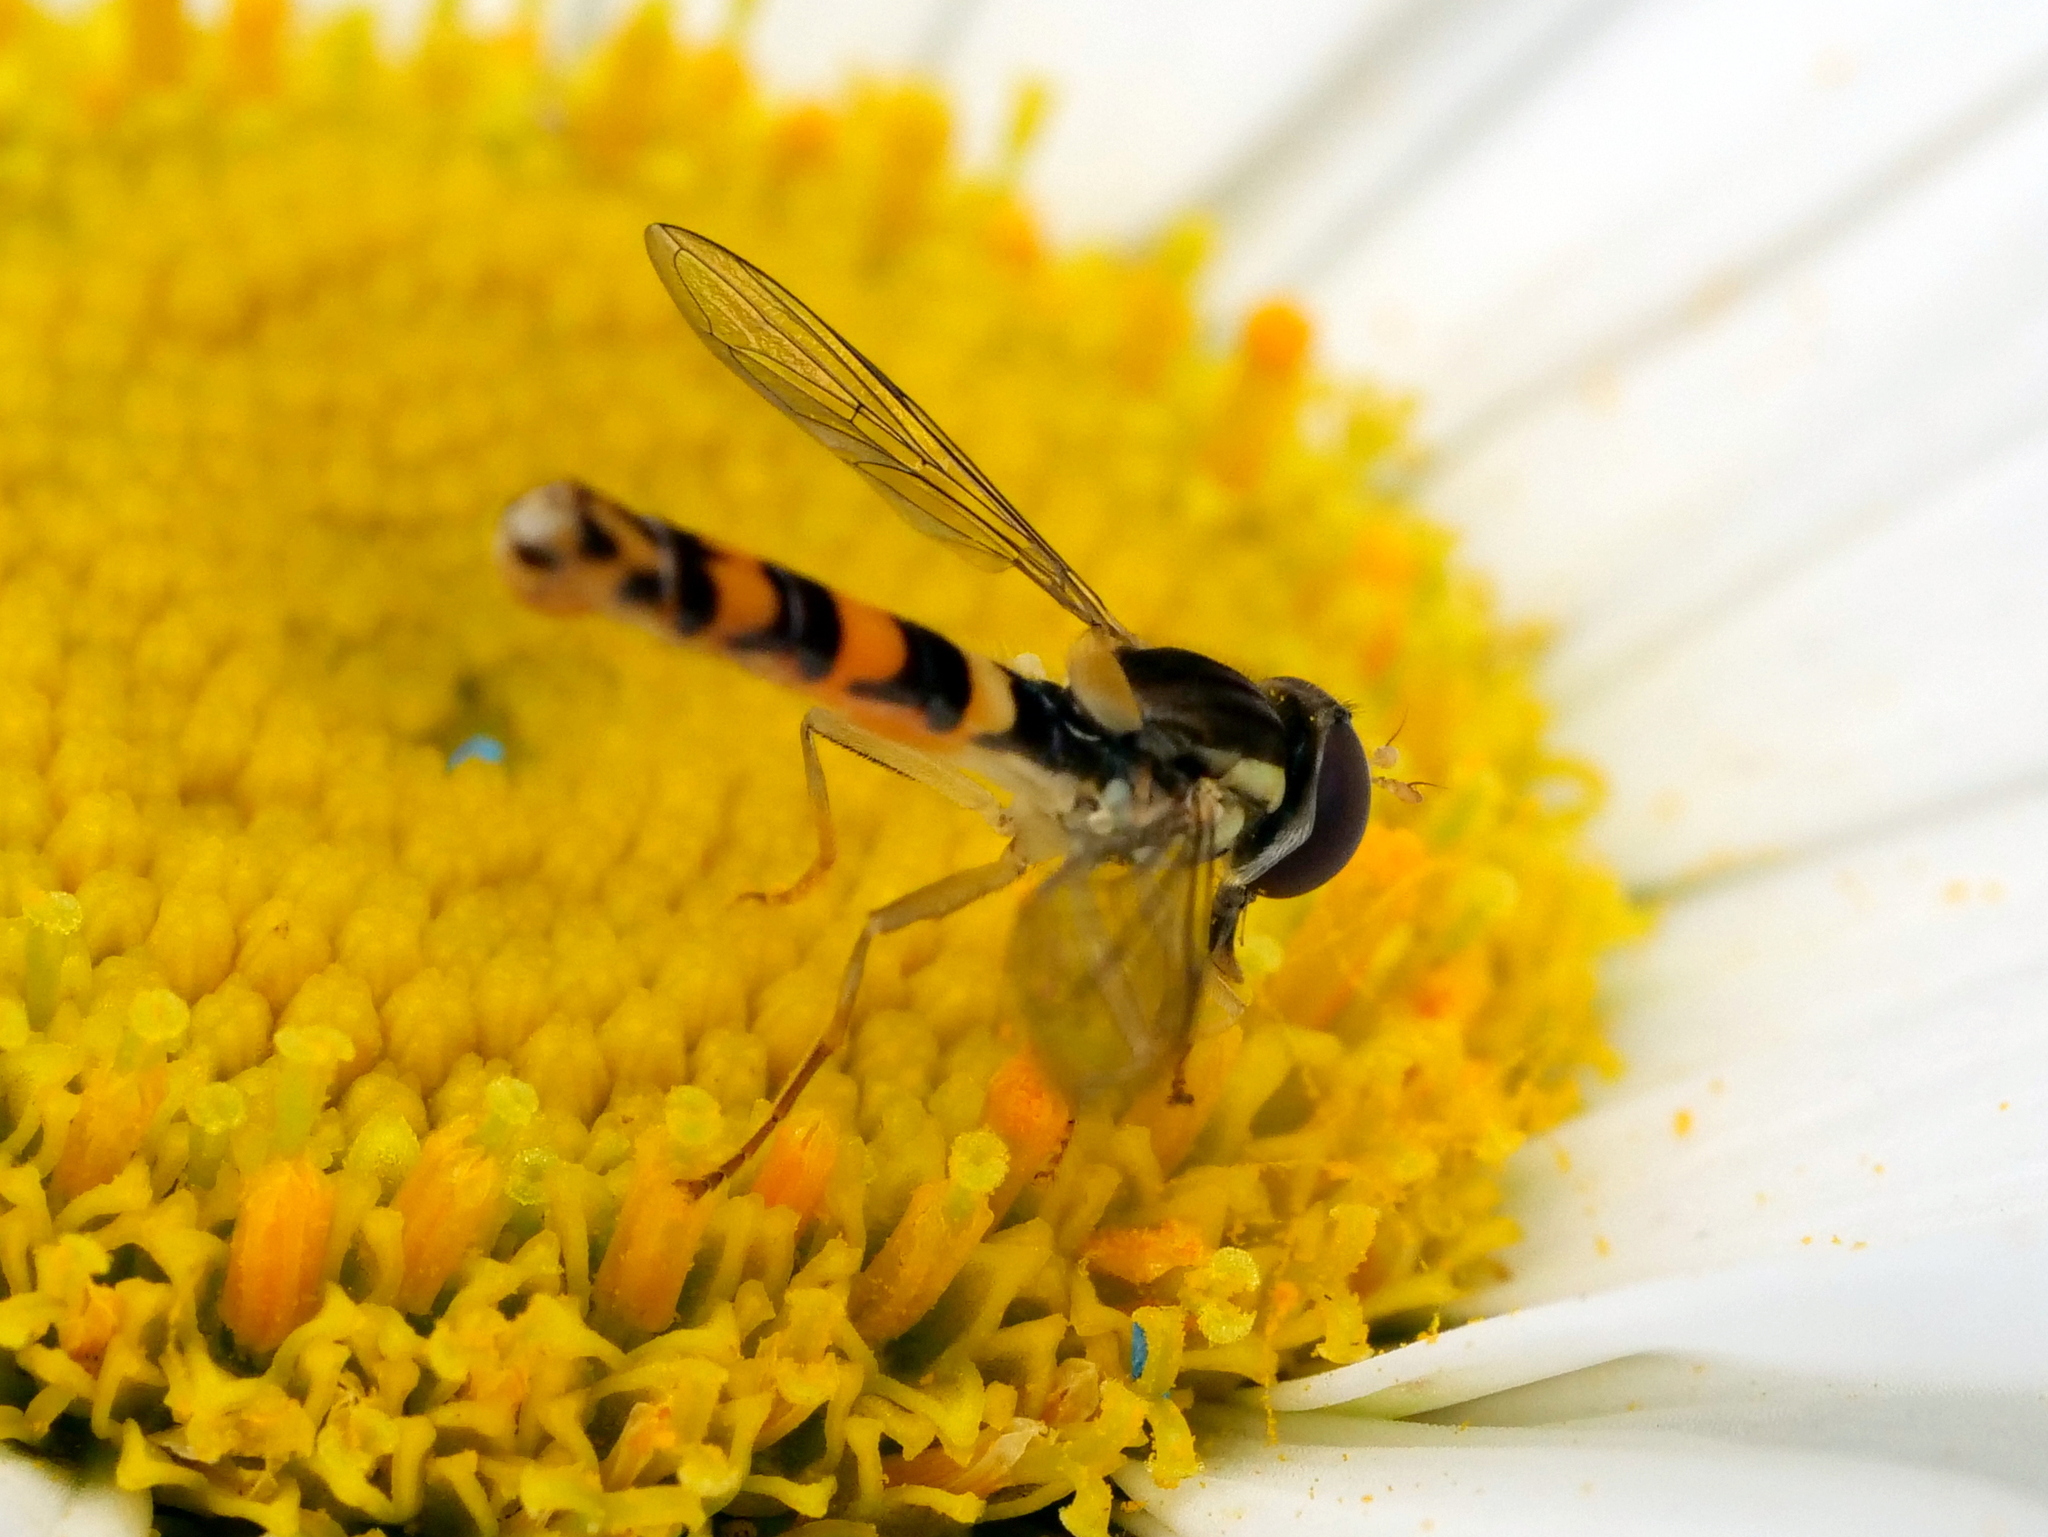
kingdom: Animalia
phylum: Arthropoda
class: Insecta
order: Diptera
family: Syrphidae
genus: Sphaerophoria
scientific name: Sphaerophoria scripta
